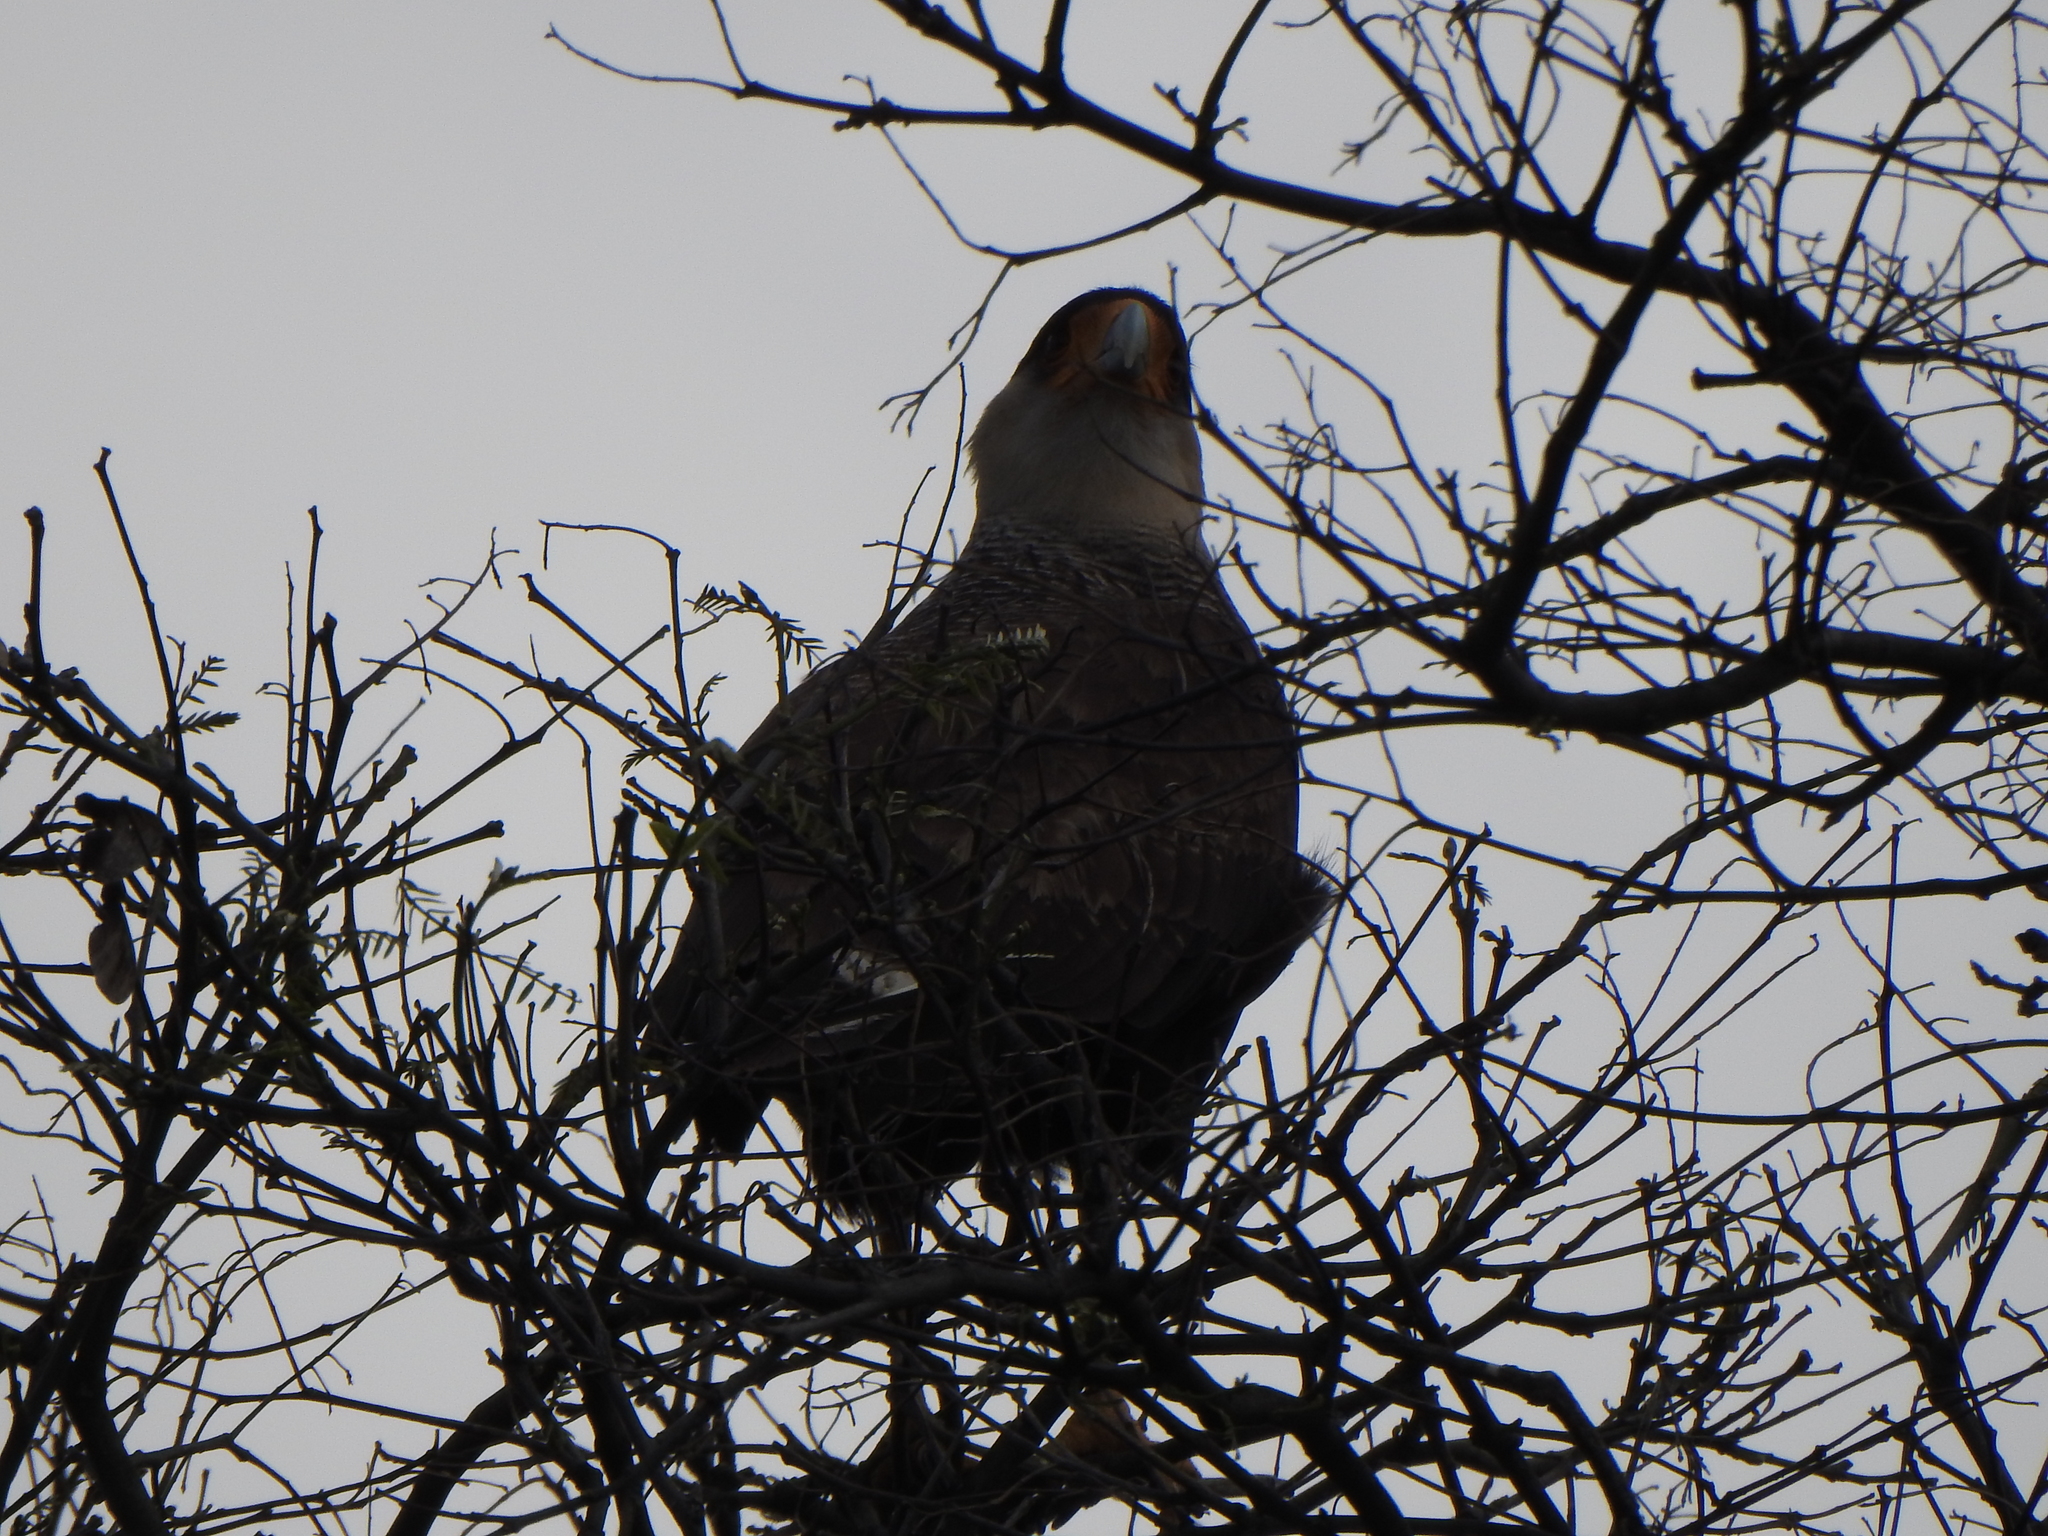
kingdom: Animalia
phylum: Chordata
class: Aves
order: Falconiformes
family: Falconidae
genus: Caracara
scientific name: Caracara plancus
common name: Southern caracara
